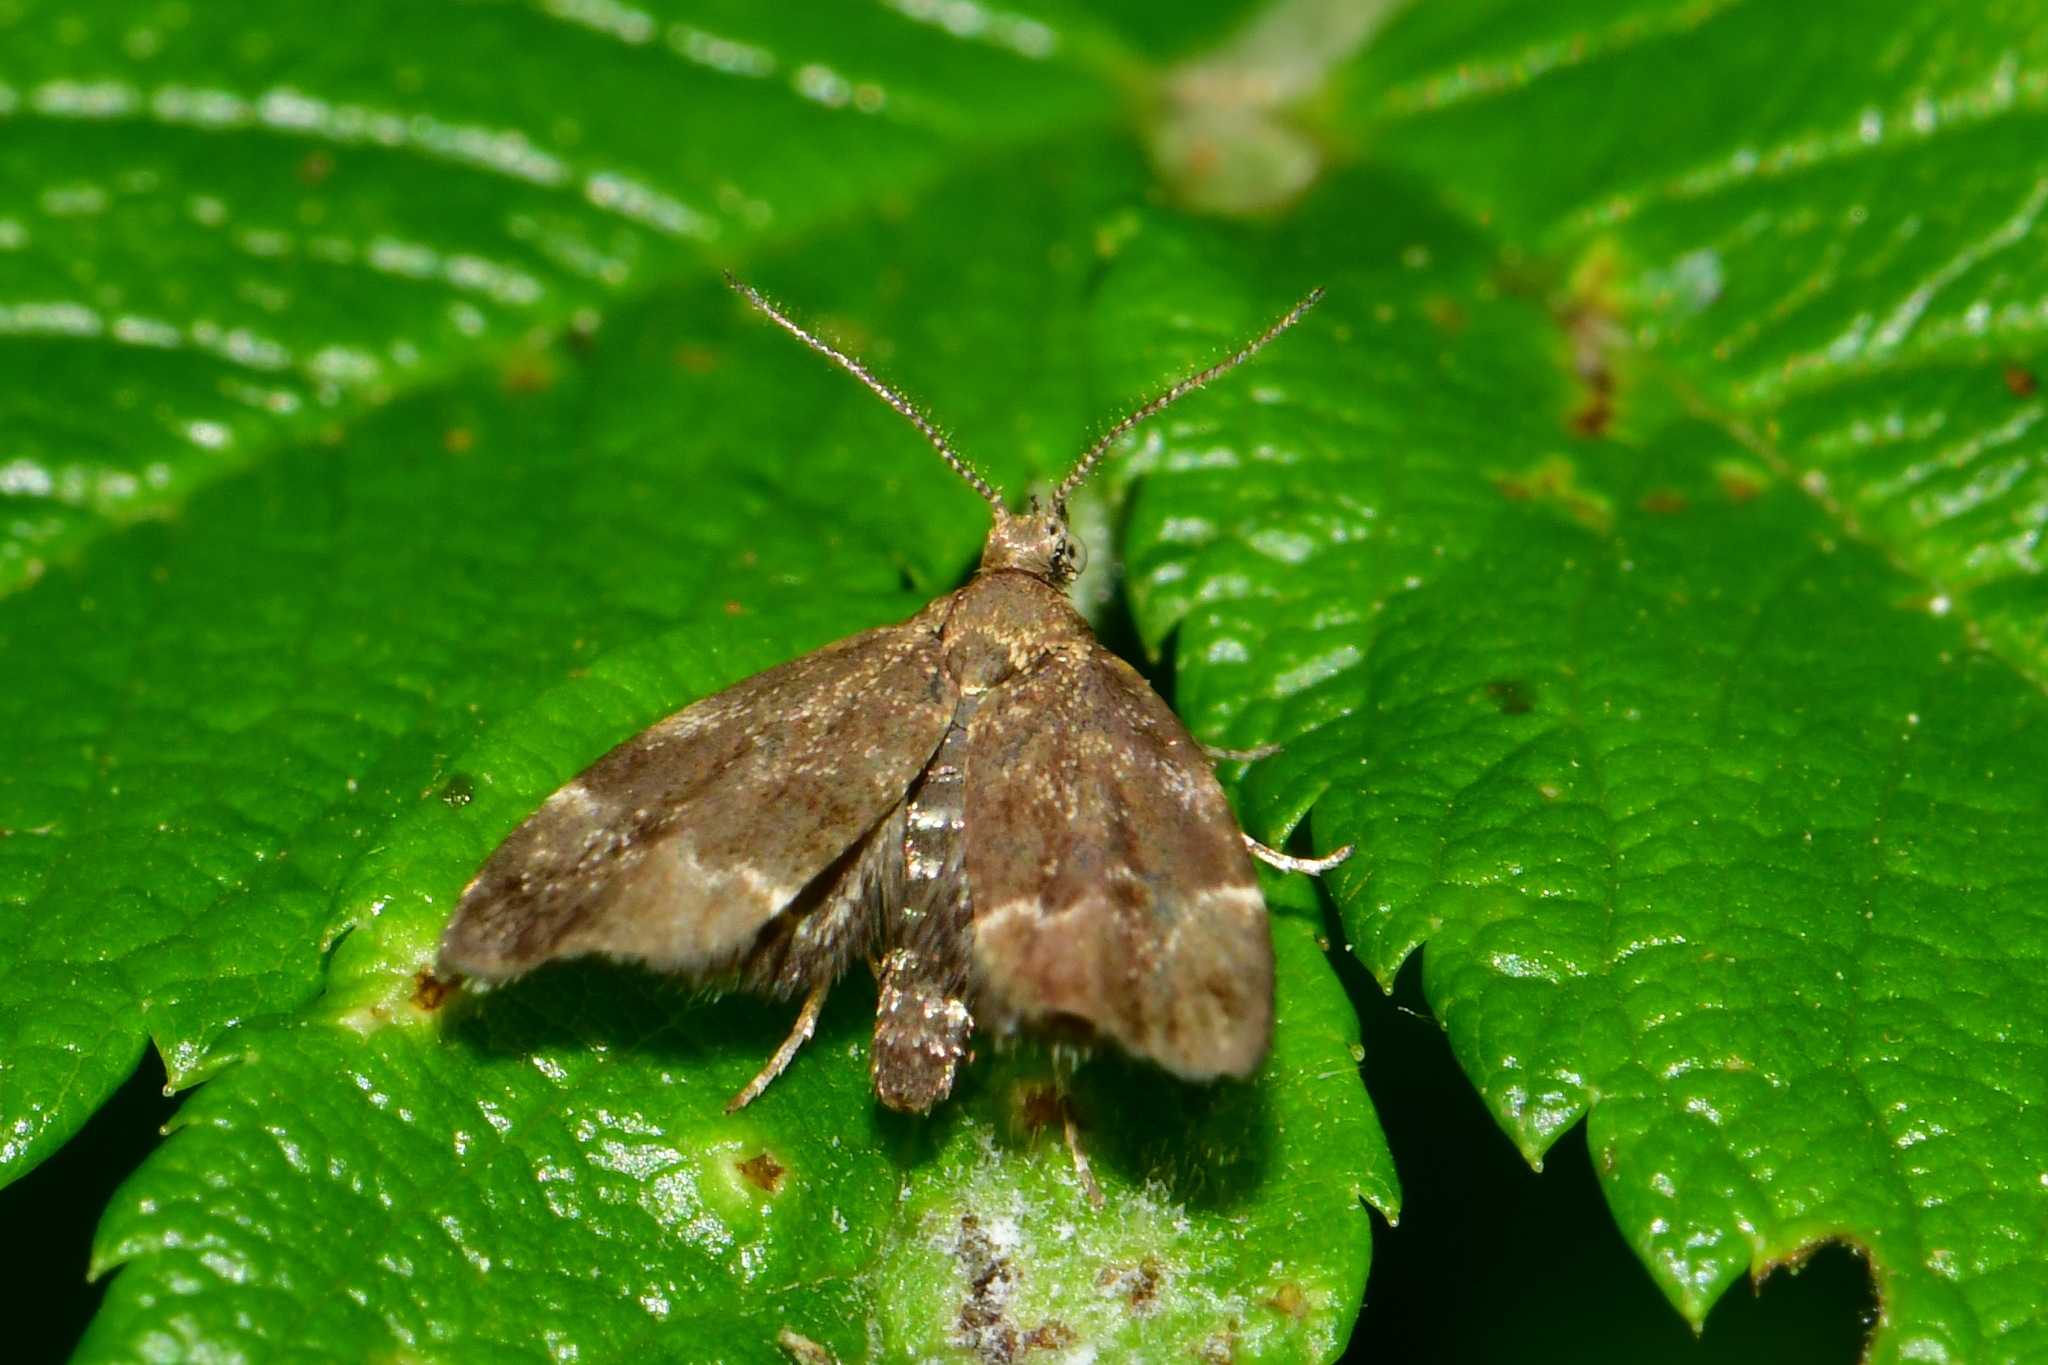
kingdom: Animalia
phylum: Arthropoda
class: Insecta
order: Lepidoptera
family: Choreutidae
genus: Anthophila
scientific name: Anthophila fabriciana
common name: Nettle-tap
